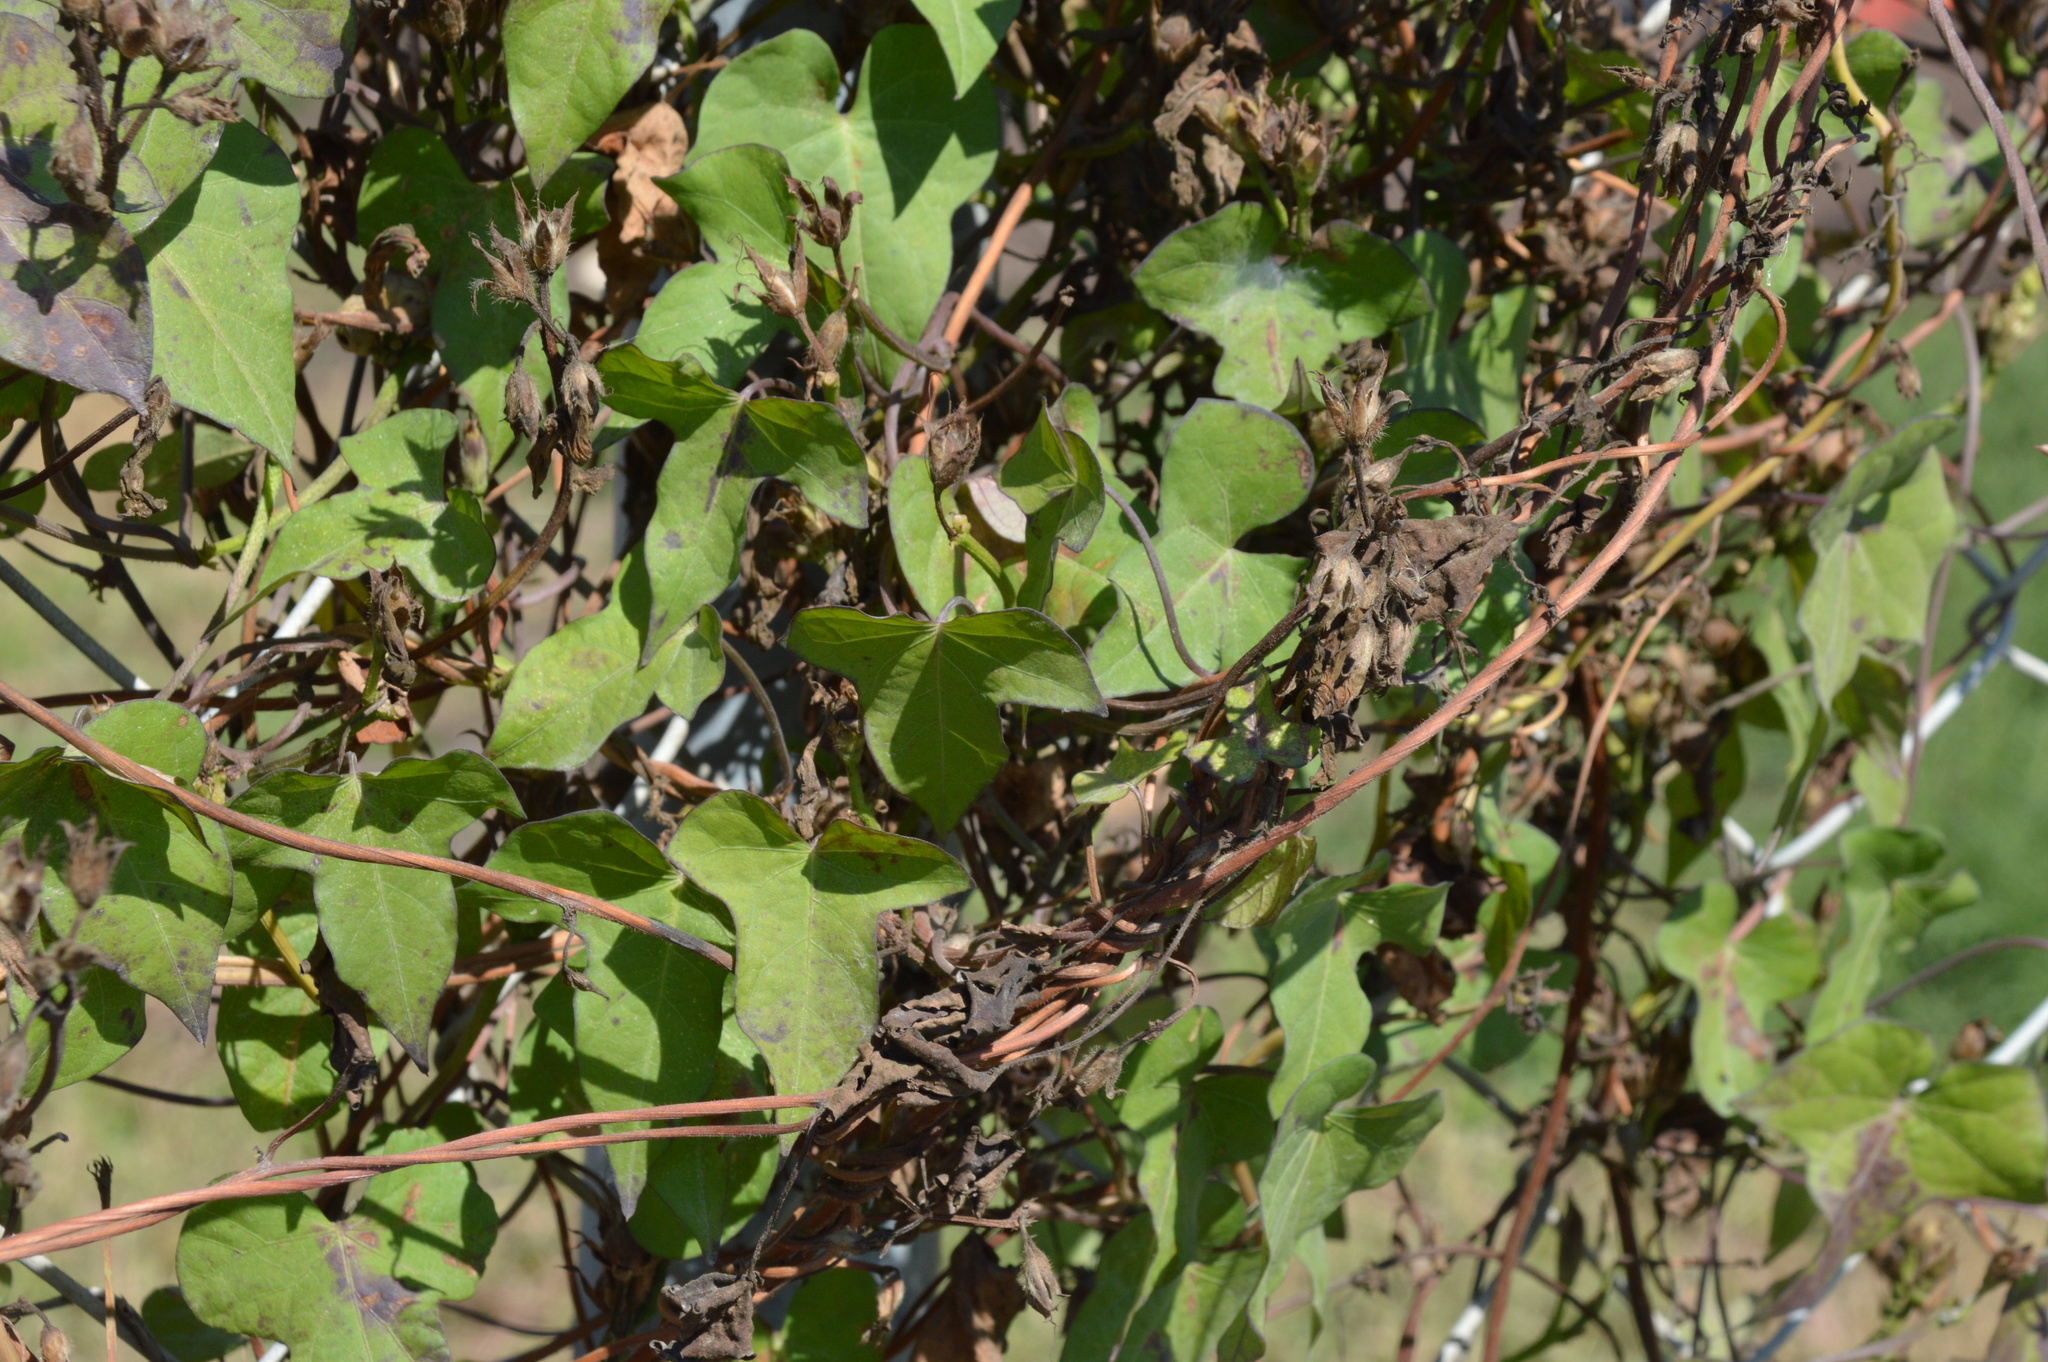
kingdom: Plantae
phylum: Tracheophyta
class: Magnoliopsida
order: Solanales
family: Convolvulaceae
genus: Ipomoea
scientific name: Ipomoea cordatotriloba
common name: Cotton morning glory
